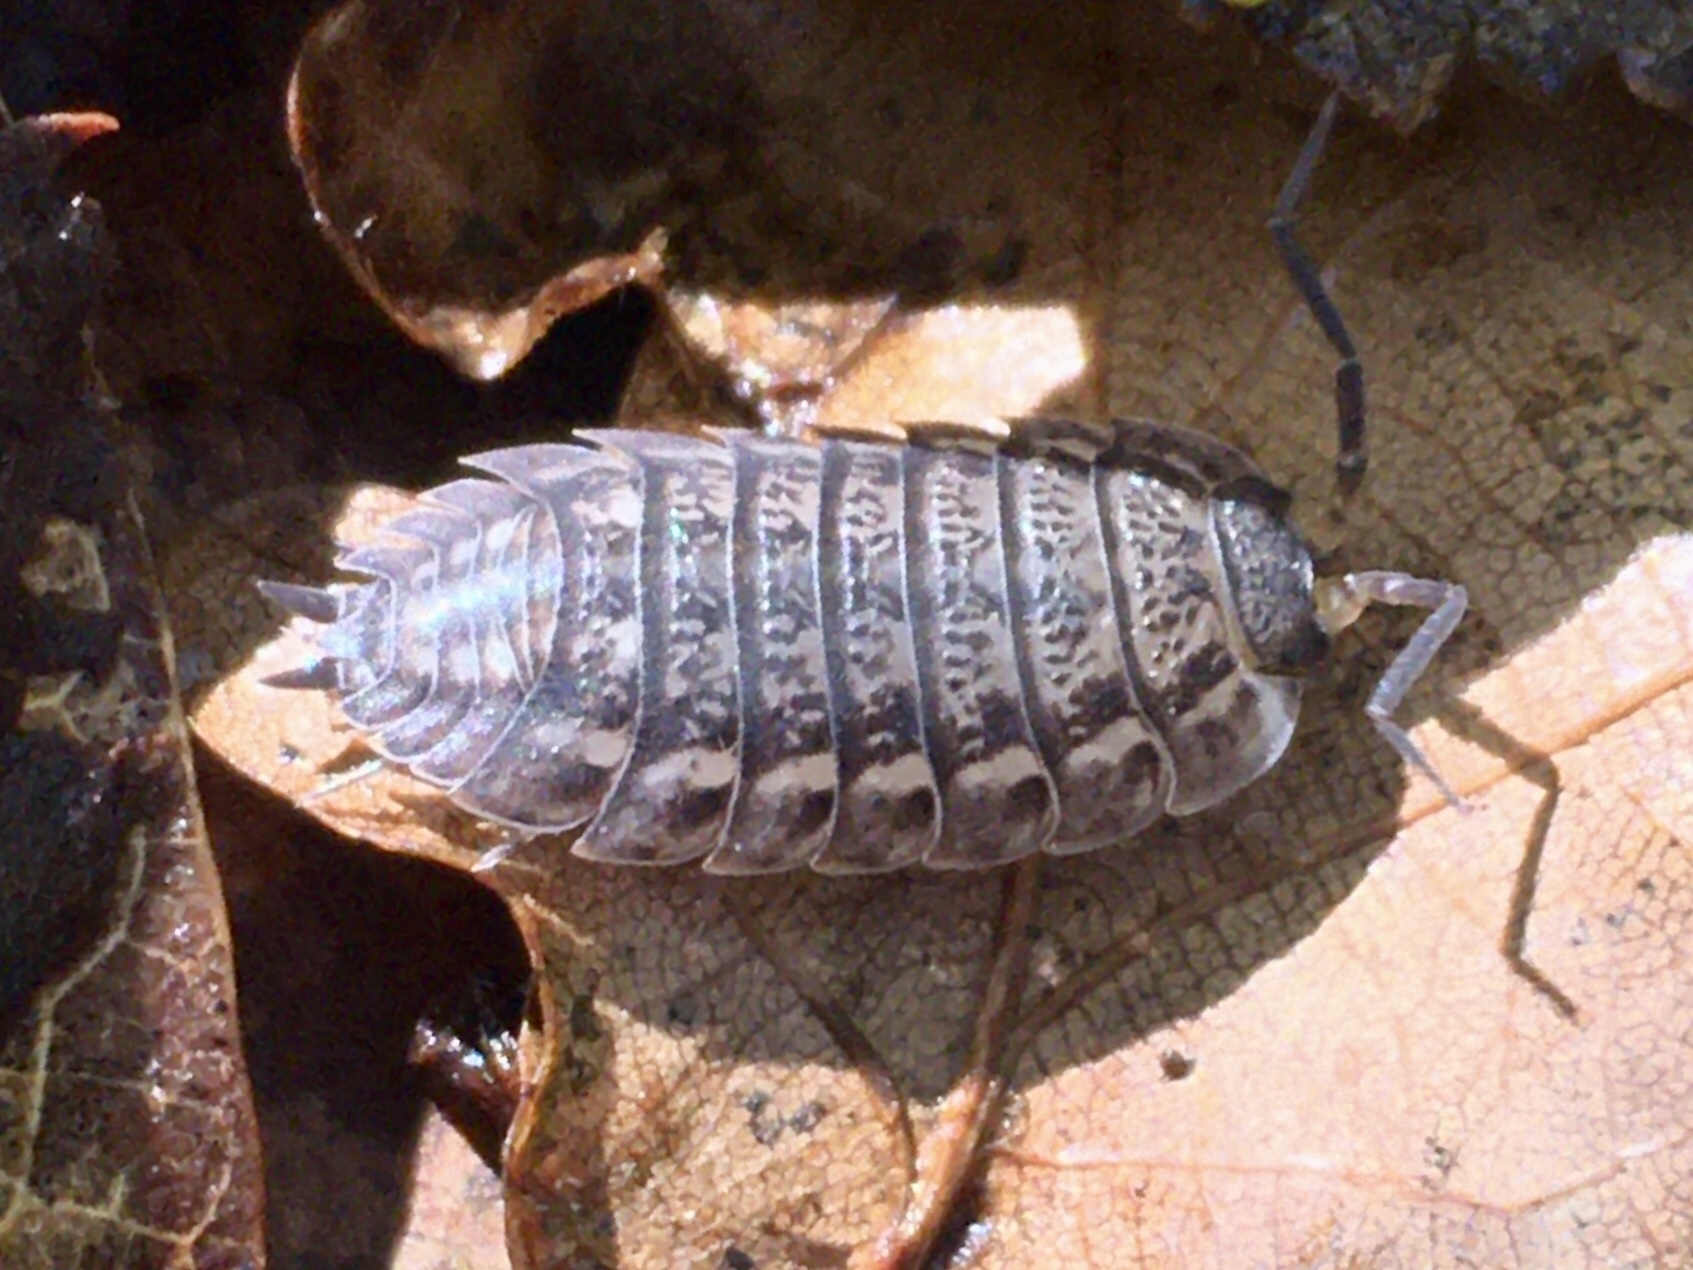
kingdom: Animalia
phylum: Arthropoda
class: Malacostraca
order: Isopoda
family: Trachelipodidae
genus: Trachelipus
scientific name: Trachelipus
